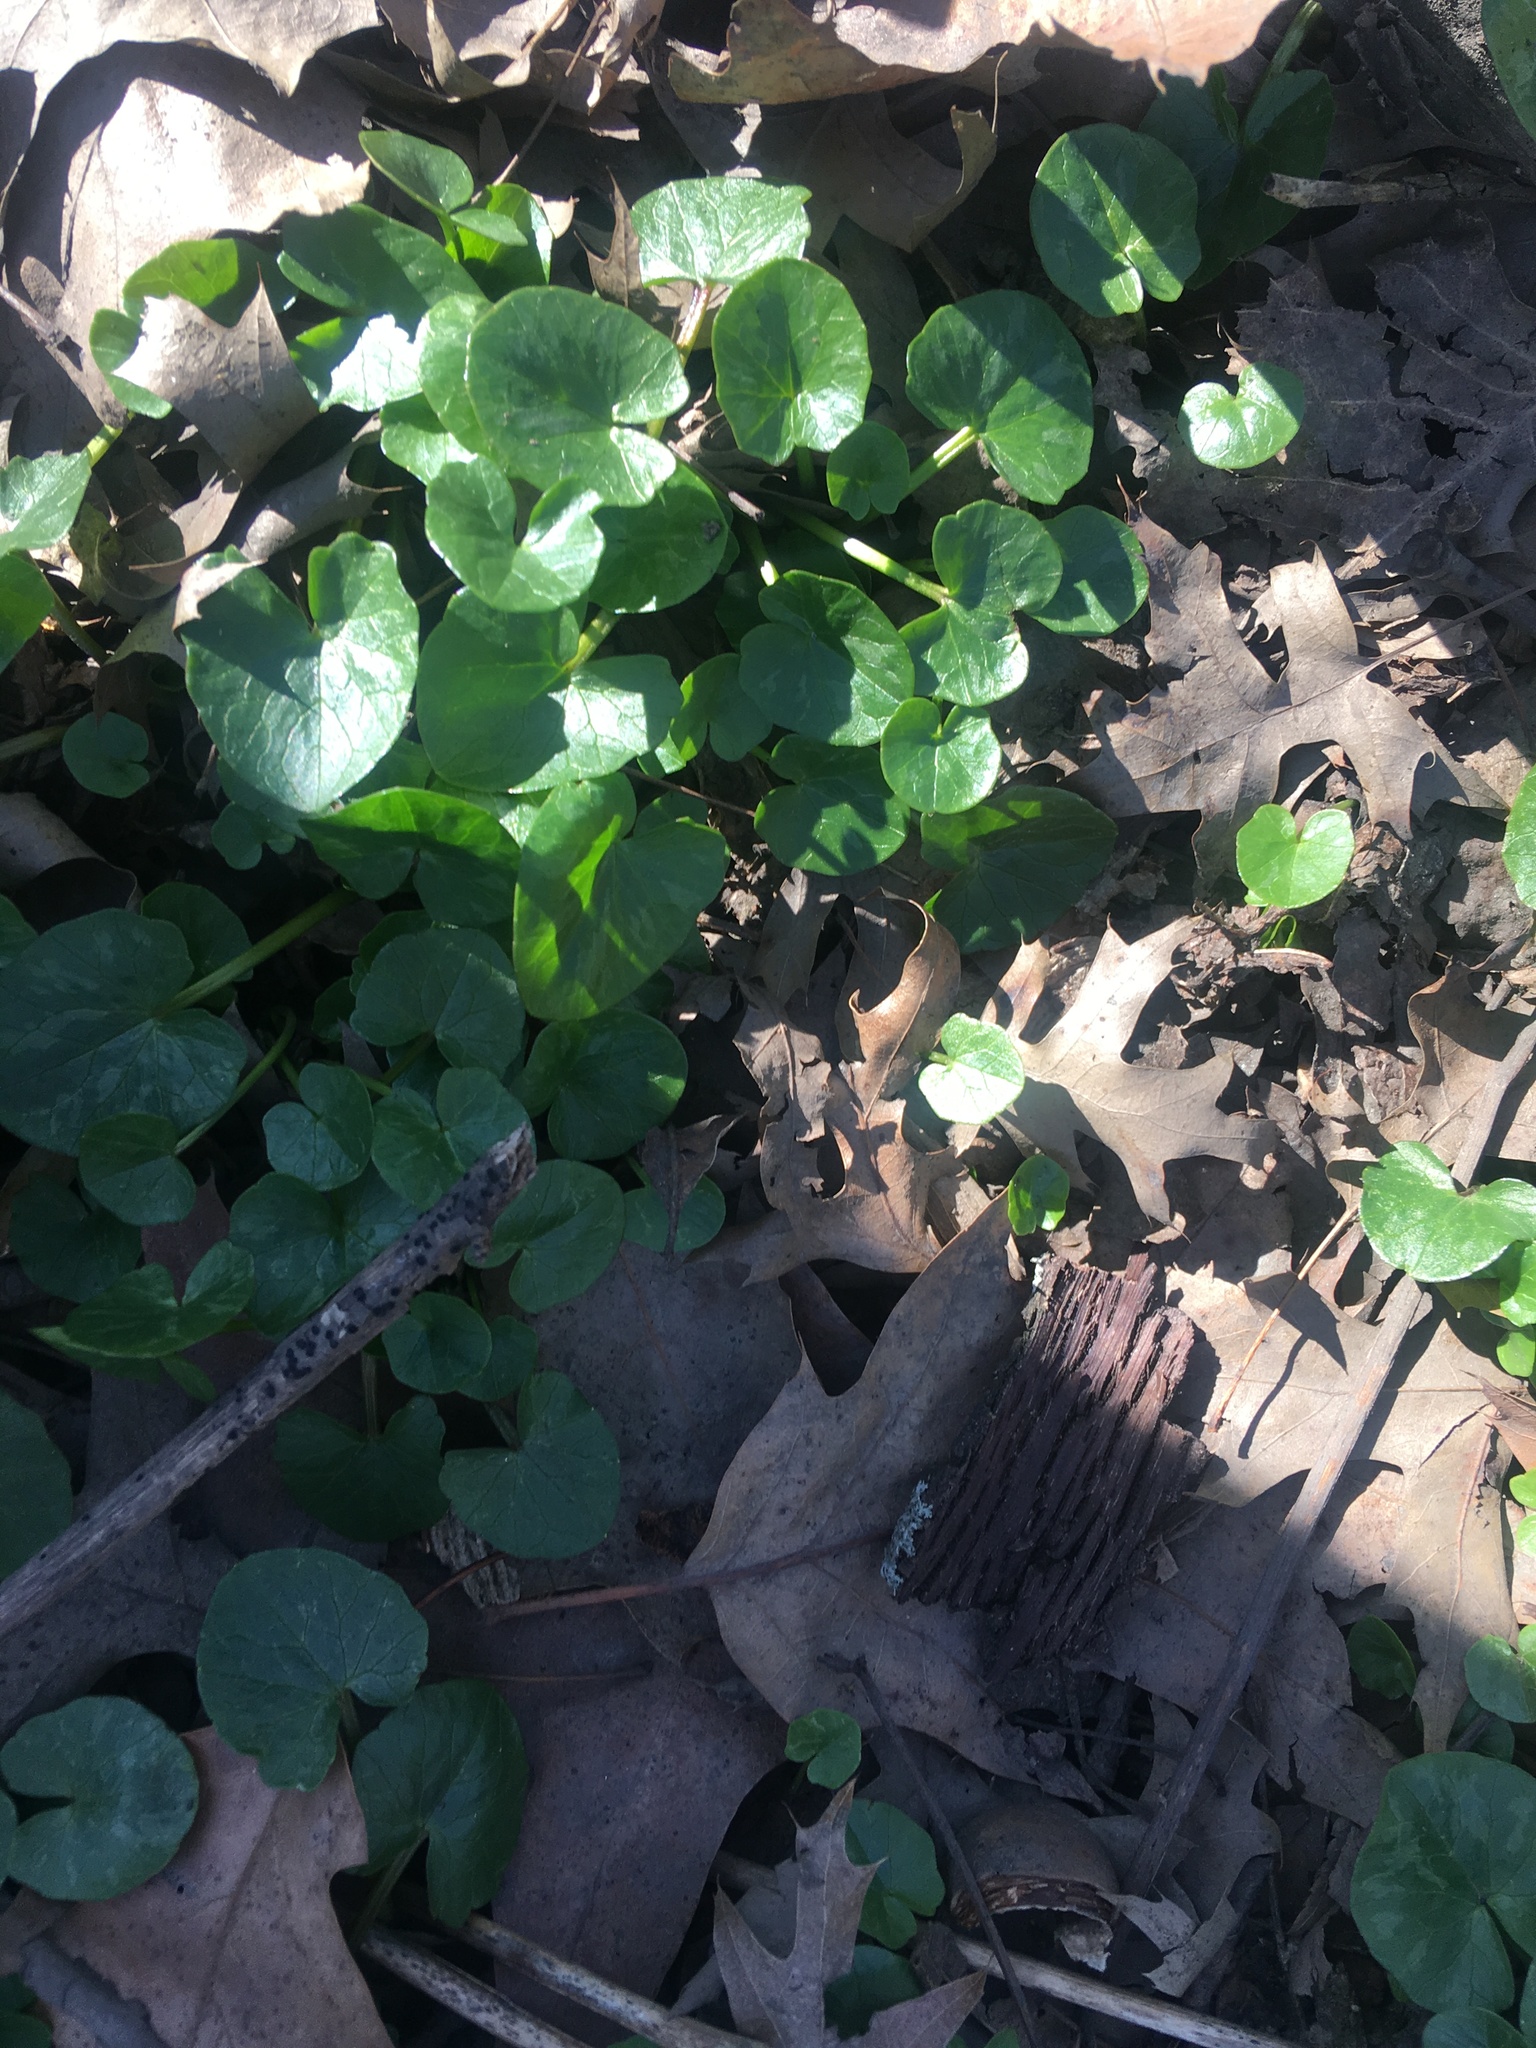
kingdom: Plantae
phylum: Tracheophyta
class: Magnoliopsida
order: Ranunculales
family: Ranunculaceae
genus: Ficaria
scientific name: Ficaria verna
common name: Lesser celandine
